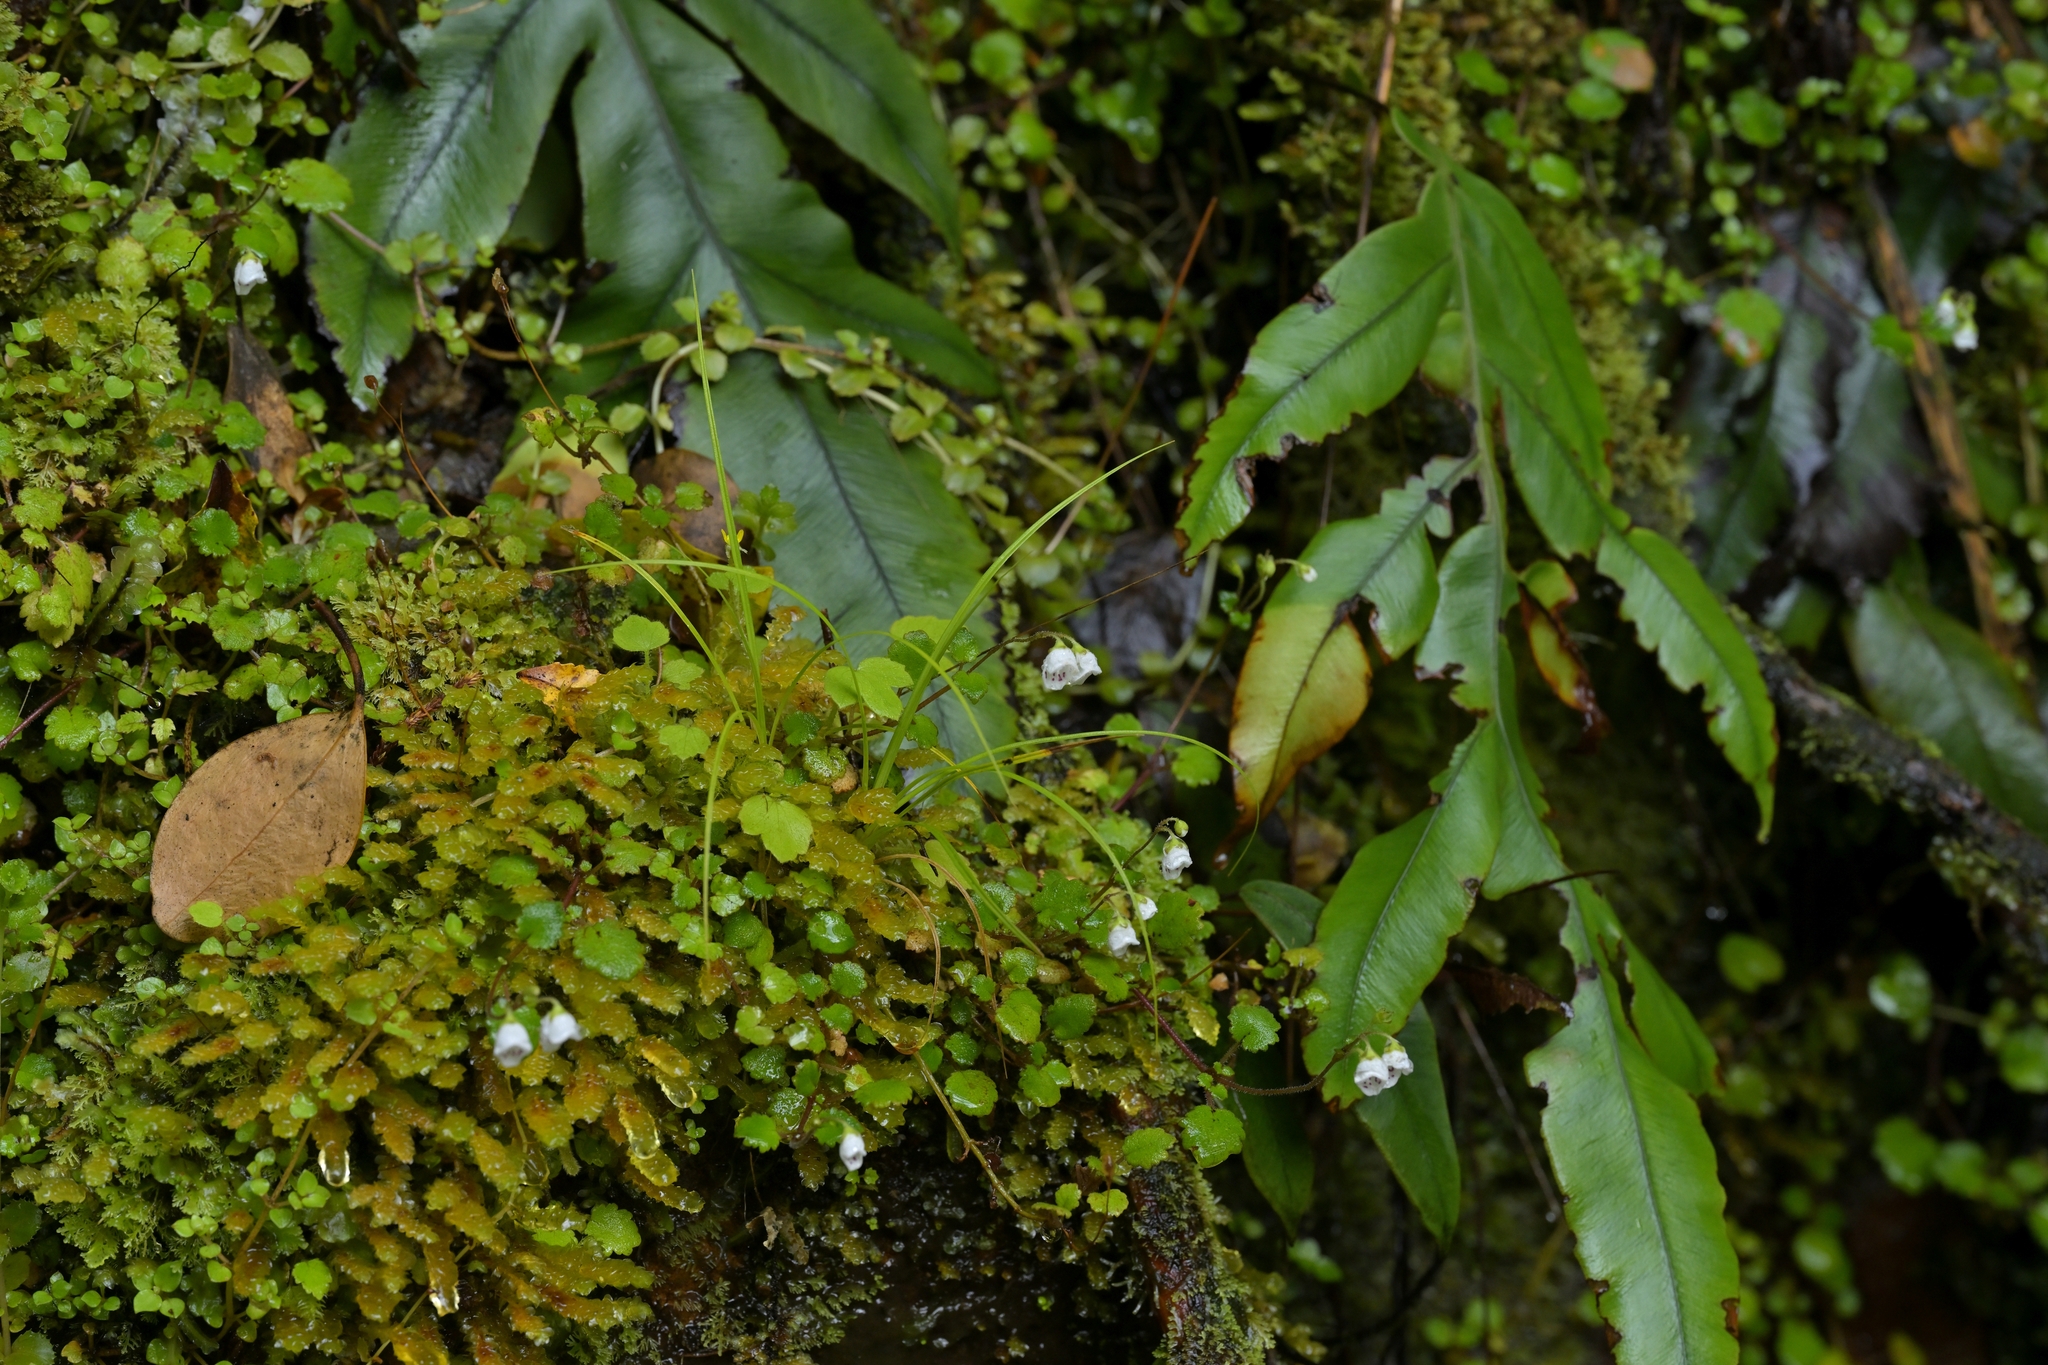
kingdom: Plantae
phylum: Tracheophyta
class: Magnoliopsida
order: Lamiales
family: Calceolariaceae
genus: Jovellana
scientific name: Jovellana repens
